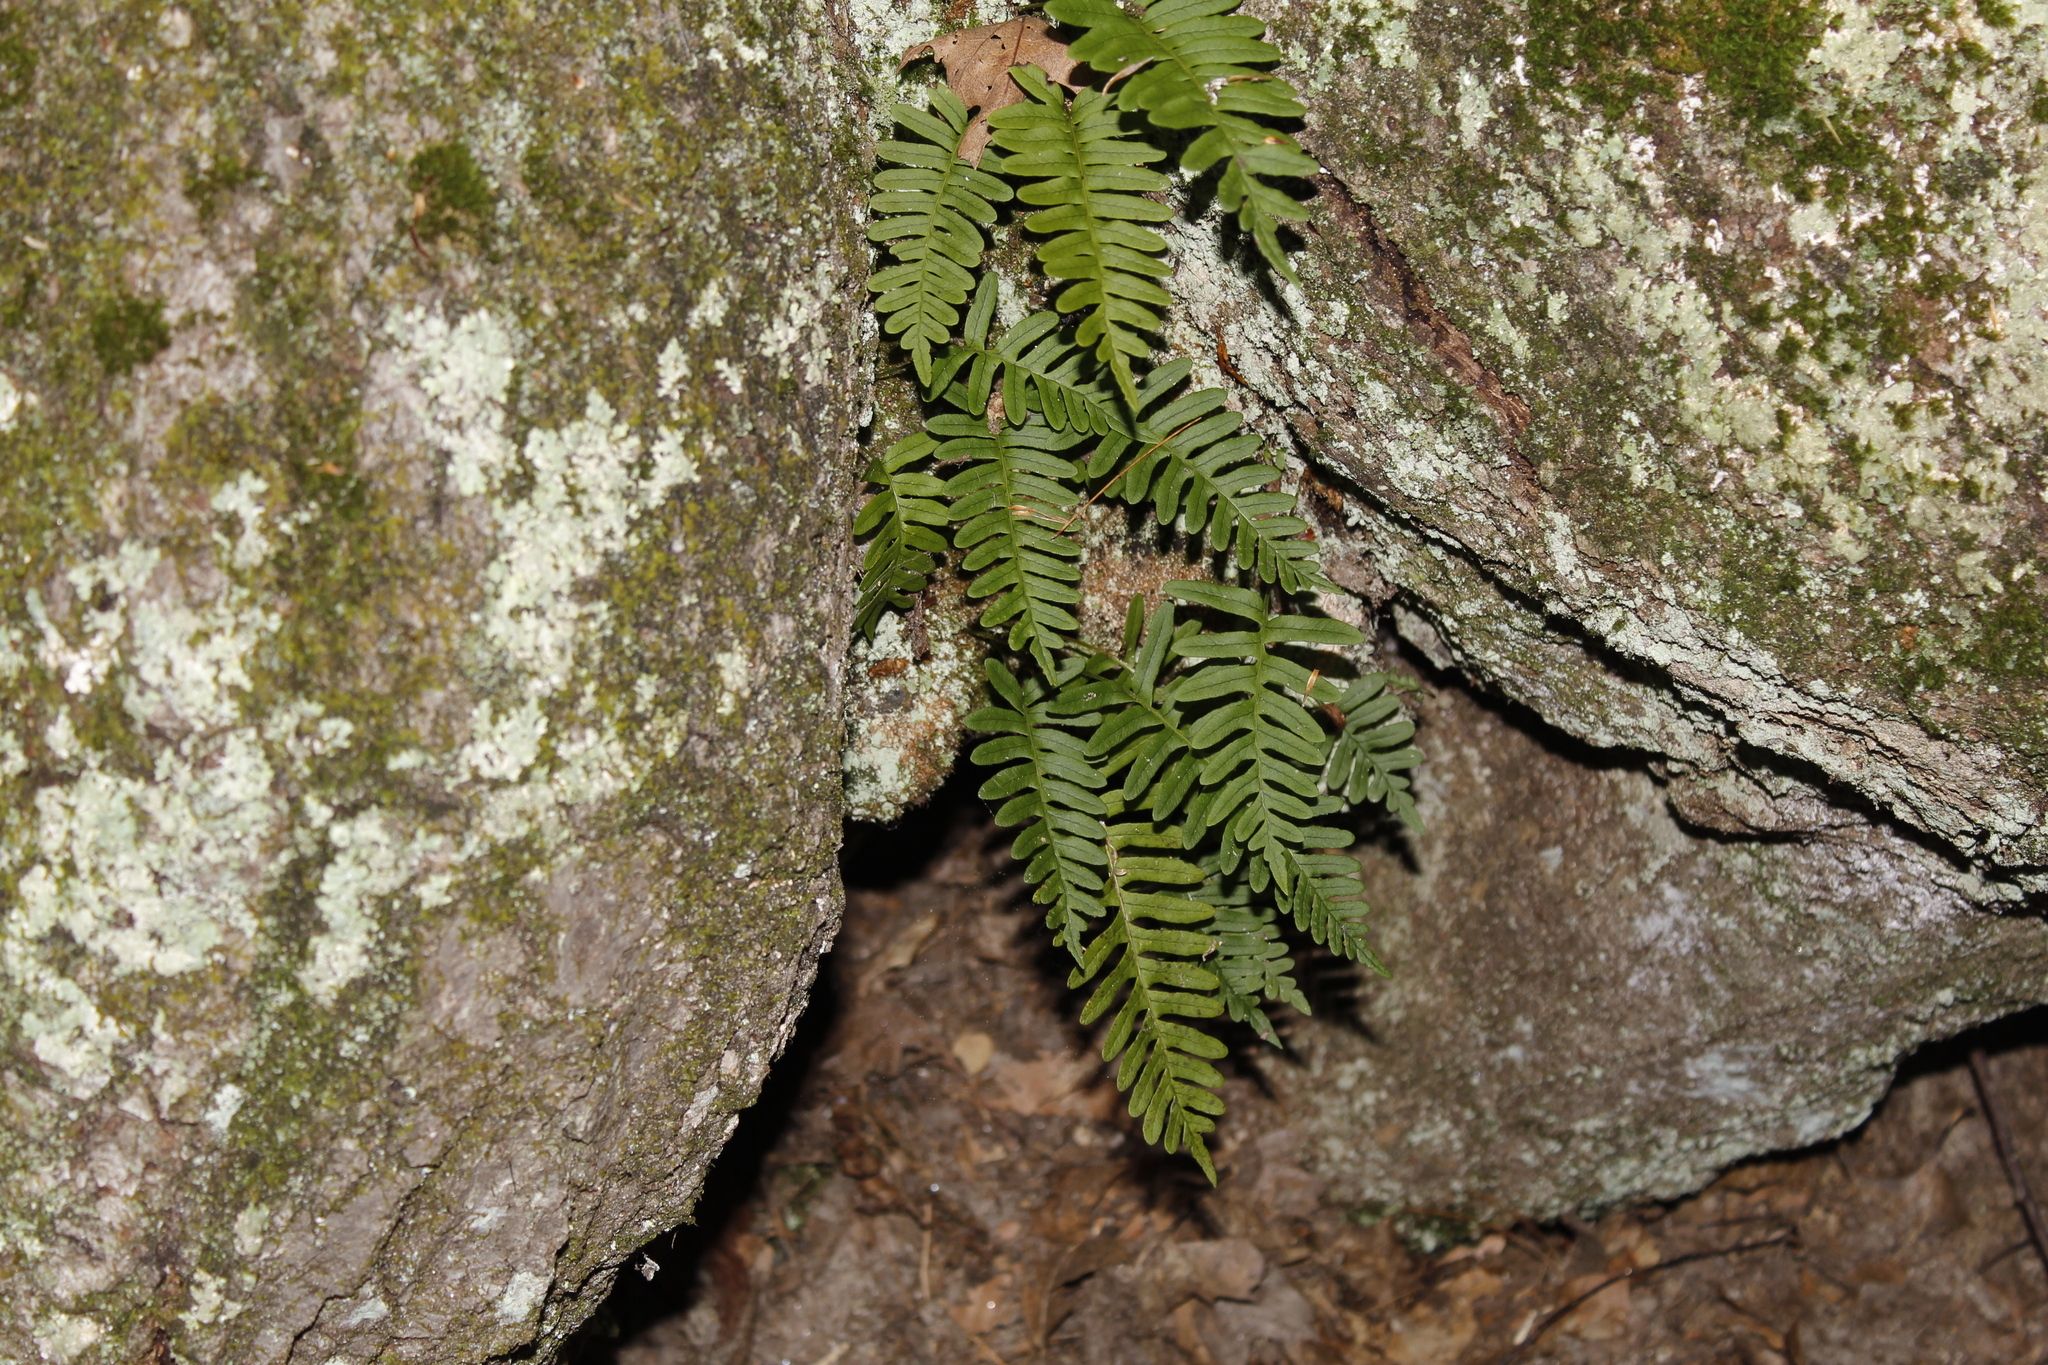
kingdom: Plantae
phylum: Tracheophyta
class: Polypodiopsida
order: Polypodiales
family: Polypodiaceae
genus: Polypodium
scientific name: Polypodium virginianum
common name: American wall fern
